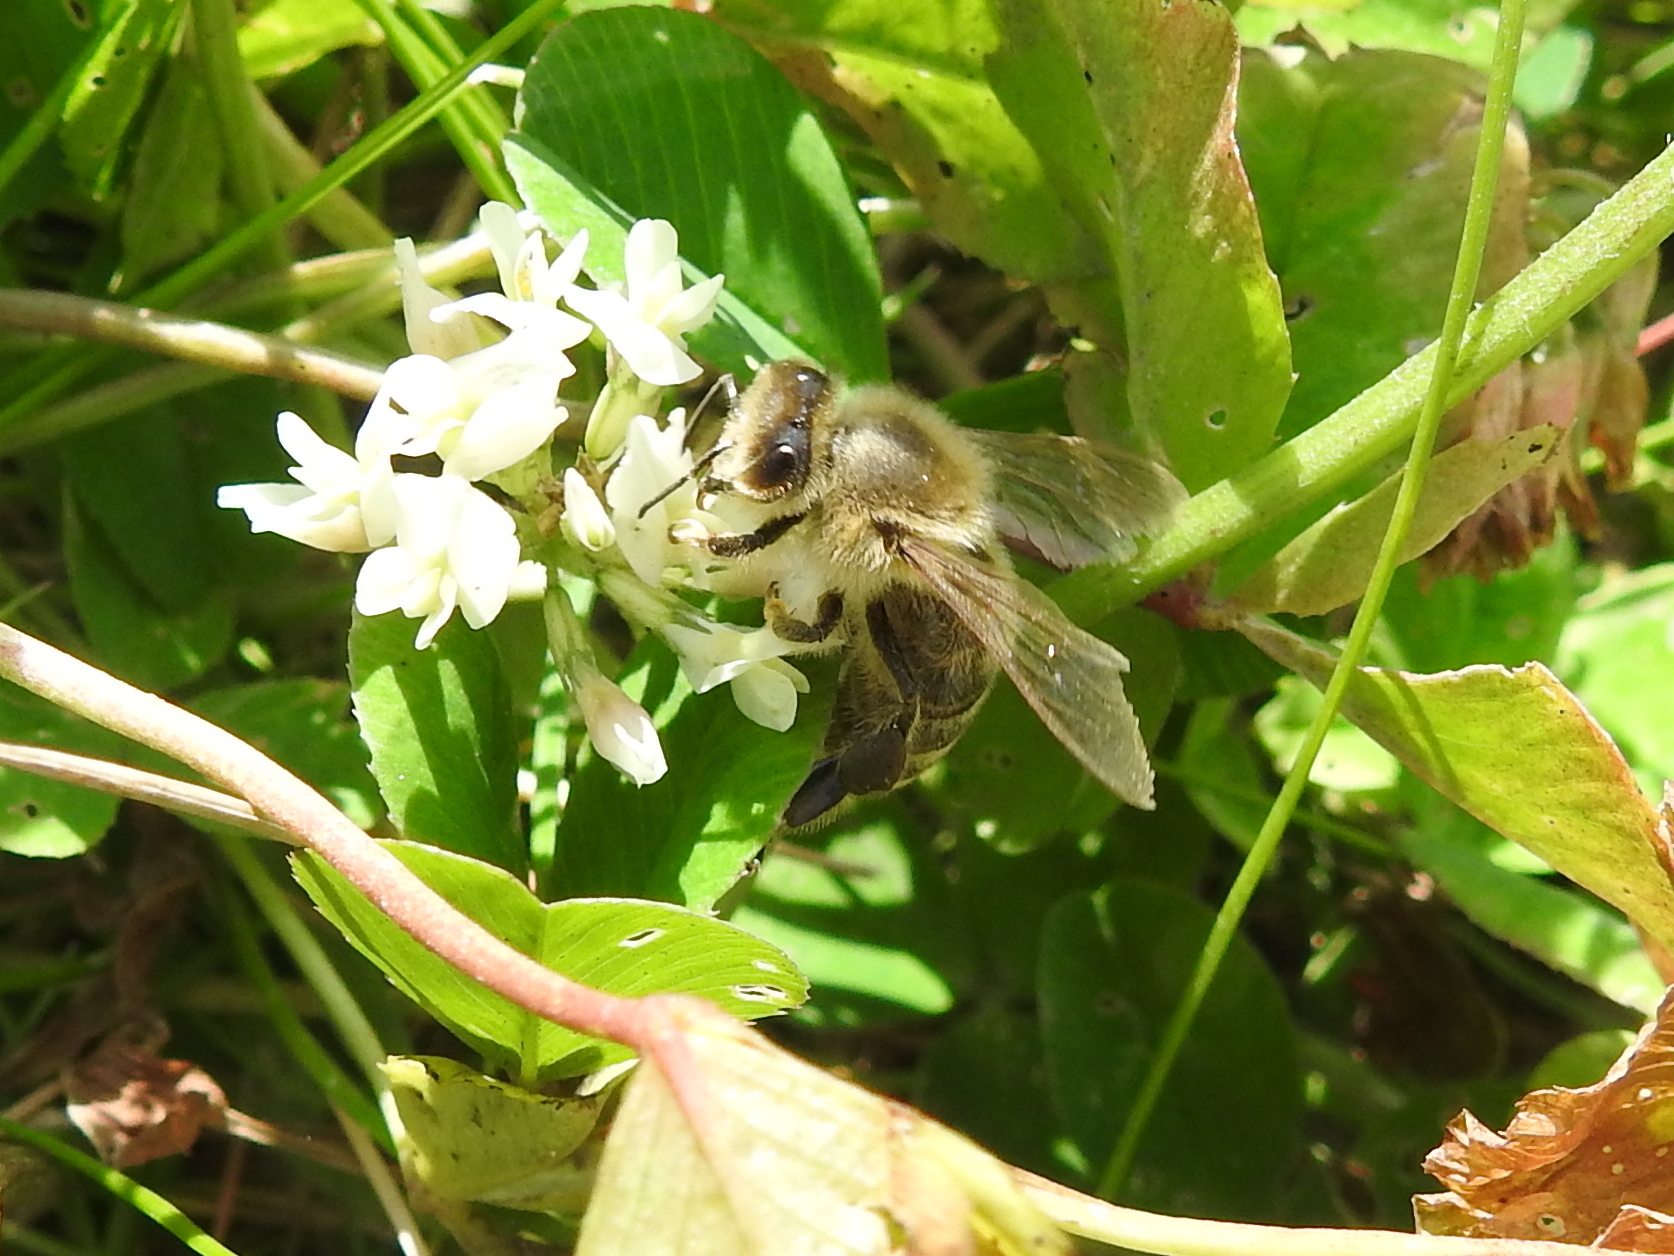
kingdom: Animalia
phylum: Arthropoda
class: Insecta
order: Hymenoptera
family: Apidae
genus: Apis
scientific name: Apis mellifera
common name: Honey bee
